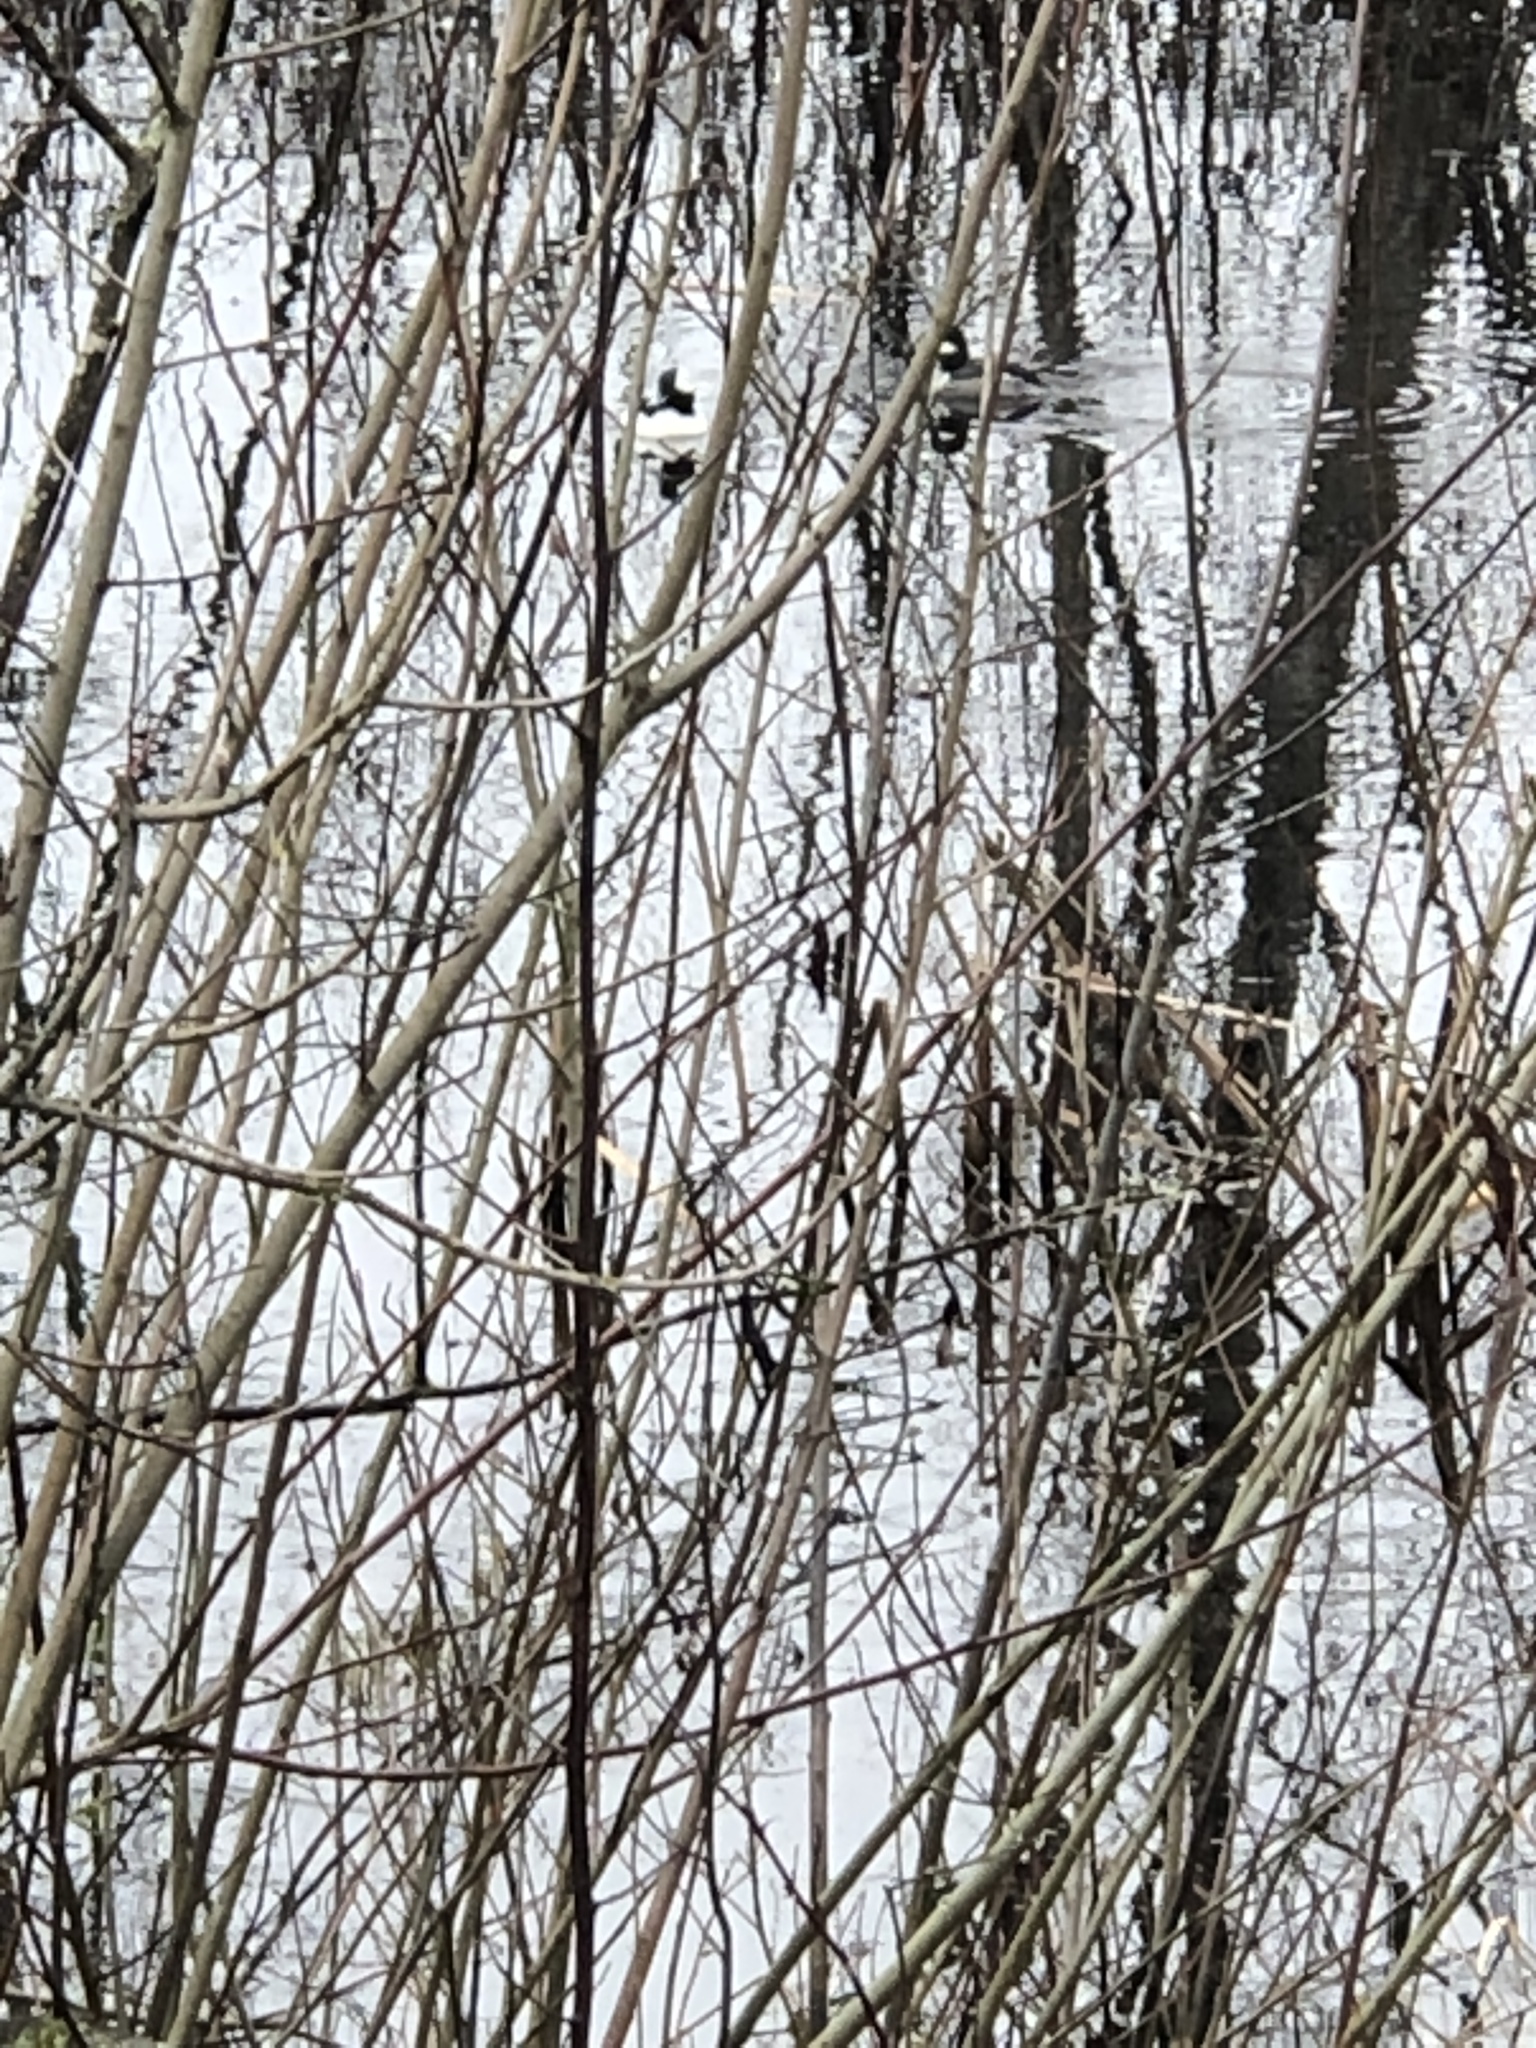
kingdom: Animalia
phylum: Chordata
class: Aves
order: Anseriformes
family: Anatidae
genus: Bucephala
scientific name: Bucephala albeola
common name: Bufflehead
